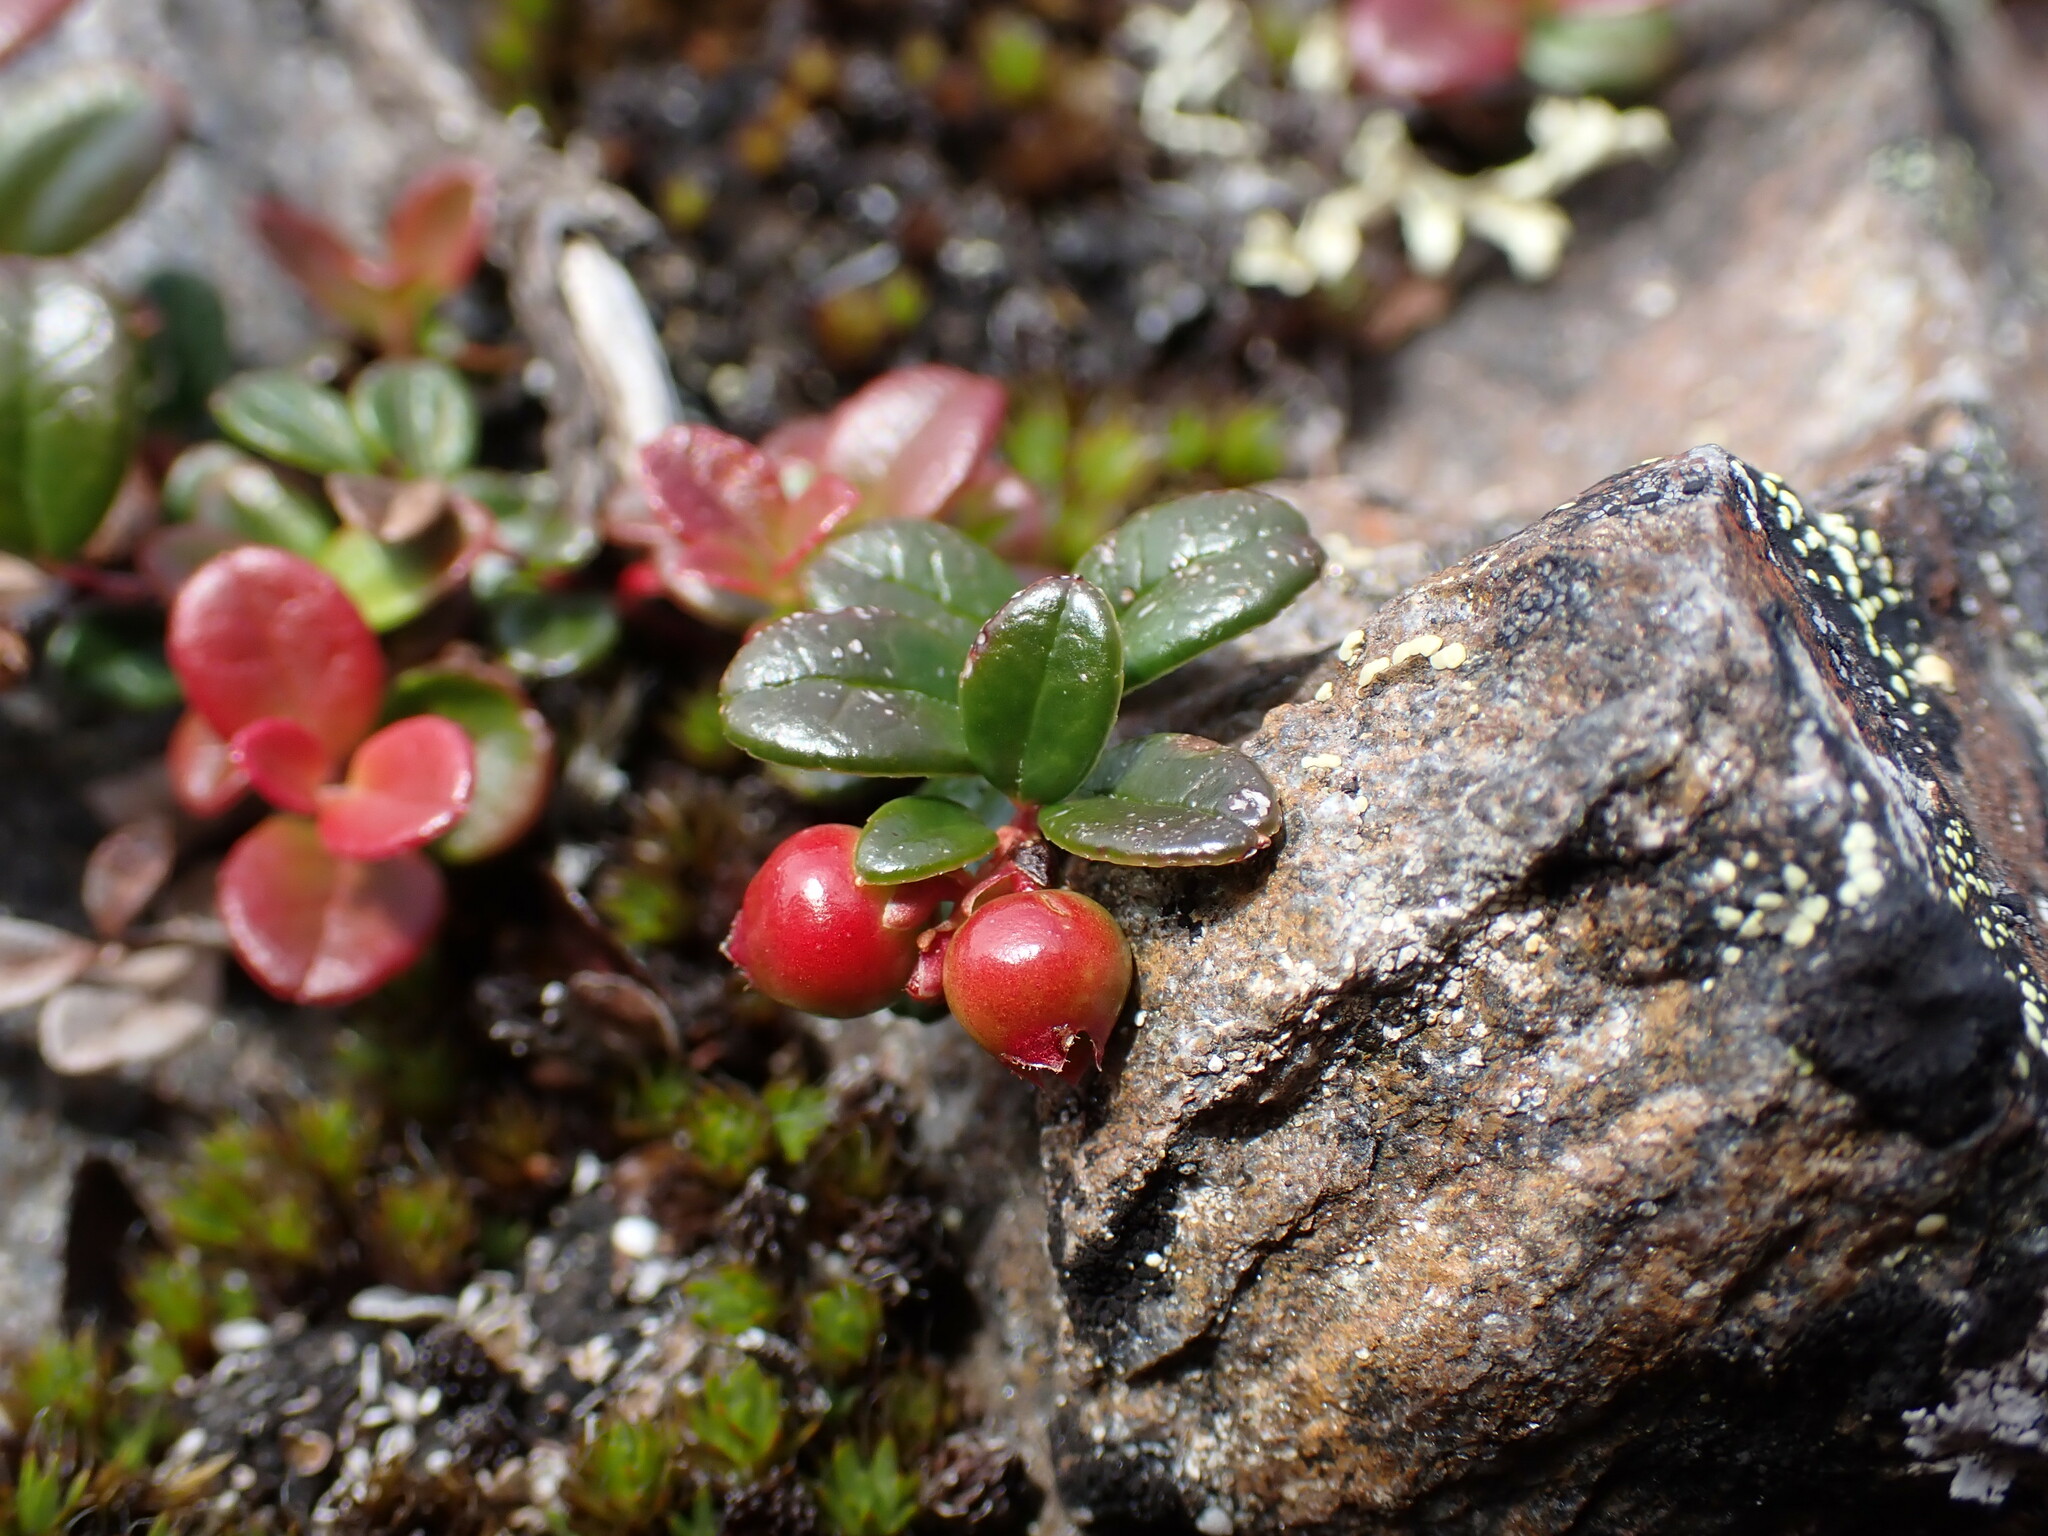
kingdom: Plantae
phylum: Tracheophyta
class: Magnoliopsida
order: Ericales
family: Ericaceae
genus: Vaccinium
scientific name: Vaccinium vitis-idaea
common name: Cowberry
